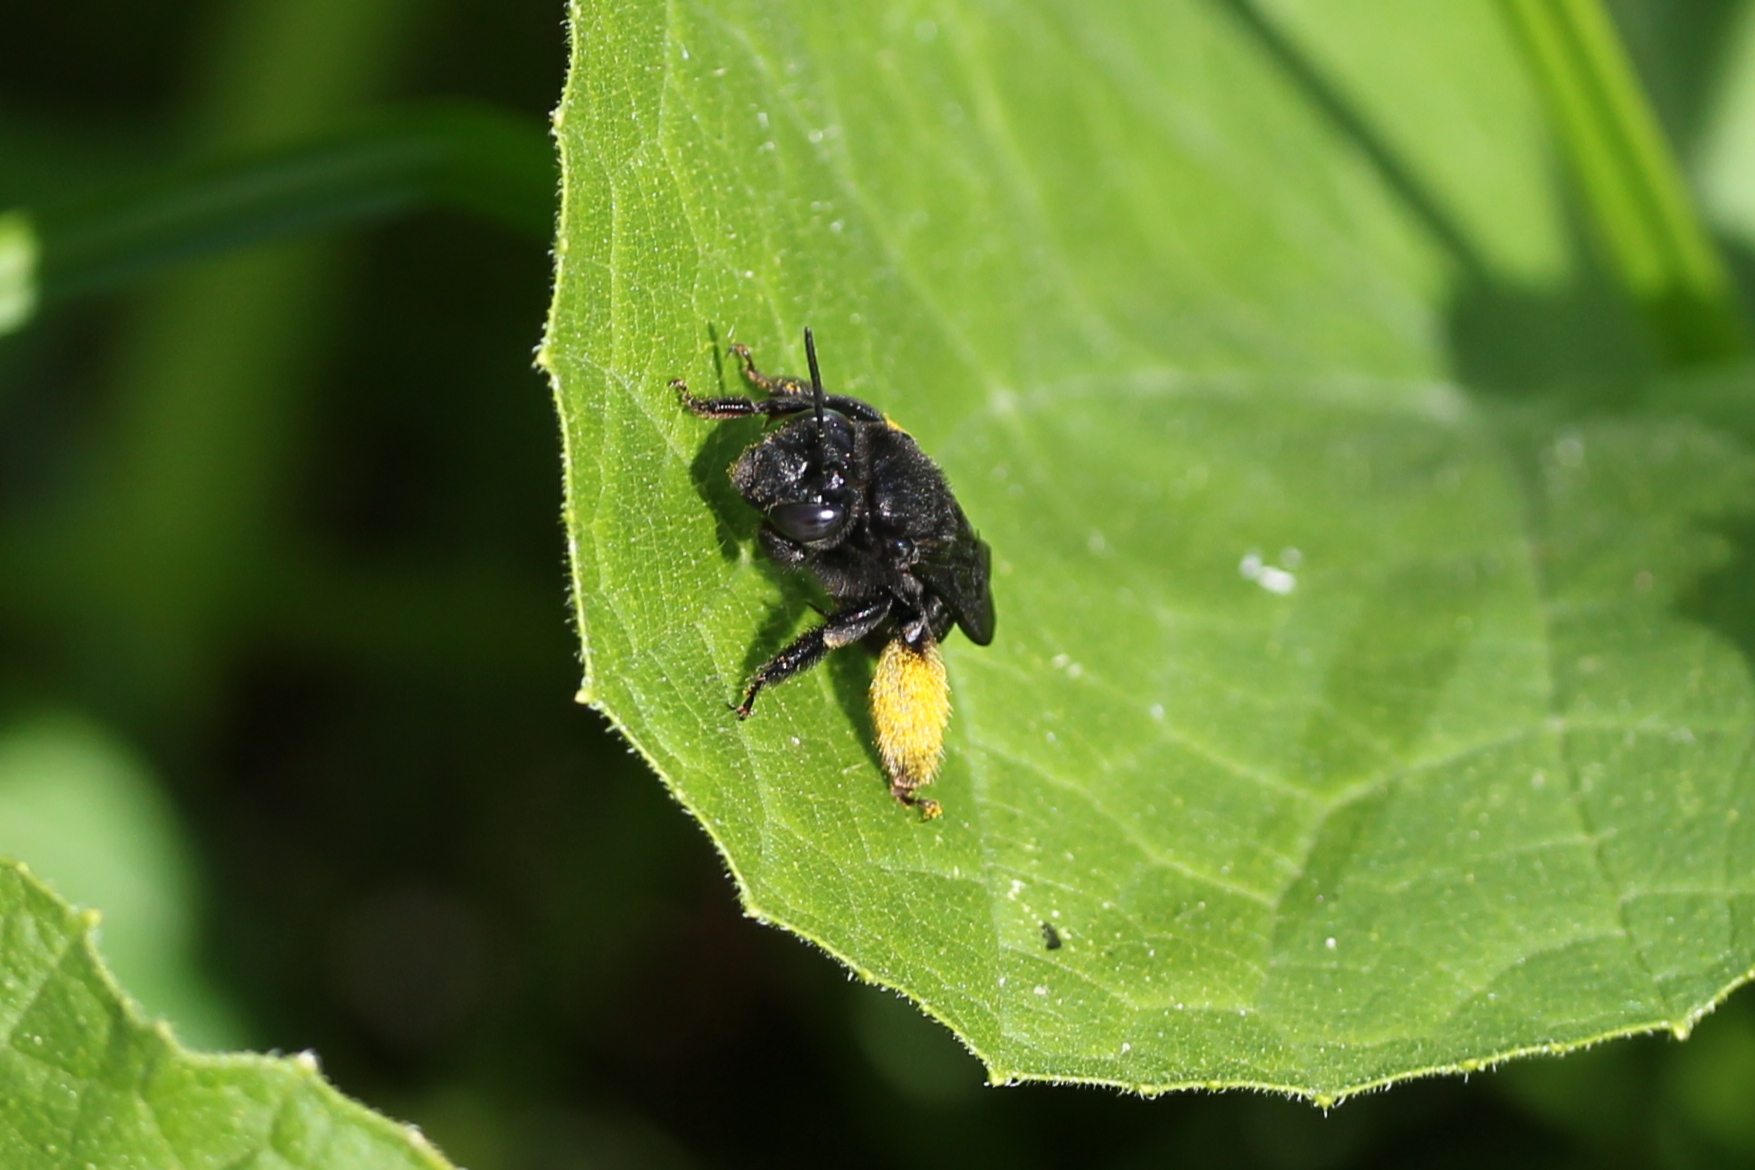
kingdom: Animalia
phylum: Arthropoda
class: Insecta
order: Hymenoptera
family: Apidae
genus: Melissodes
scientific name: Melissodes bimaculatus
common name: Two-spotted long-horned bee
